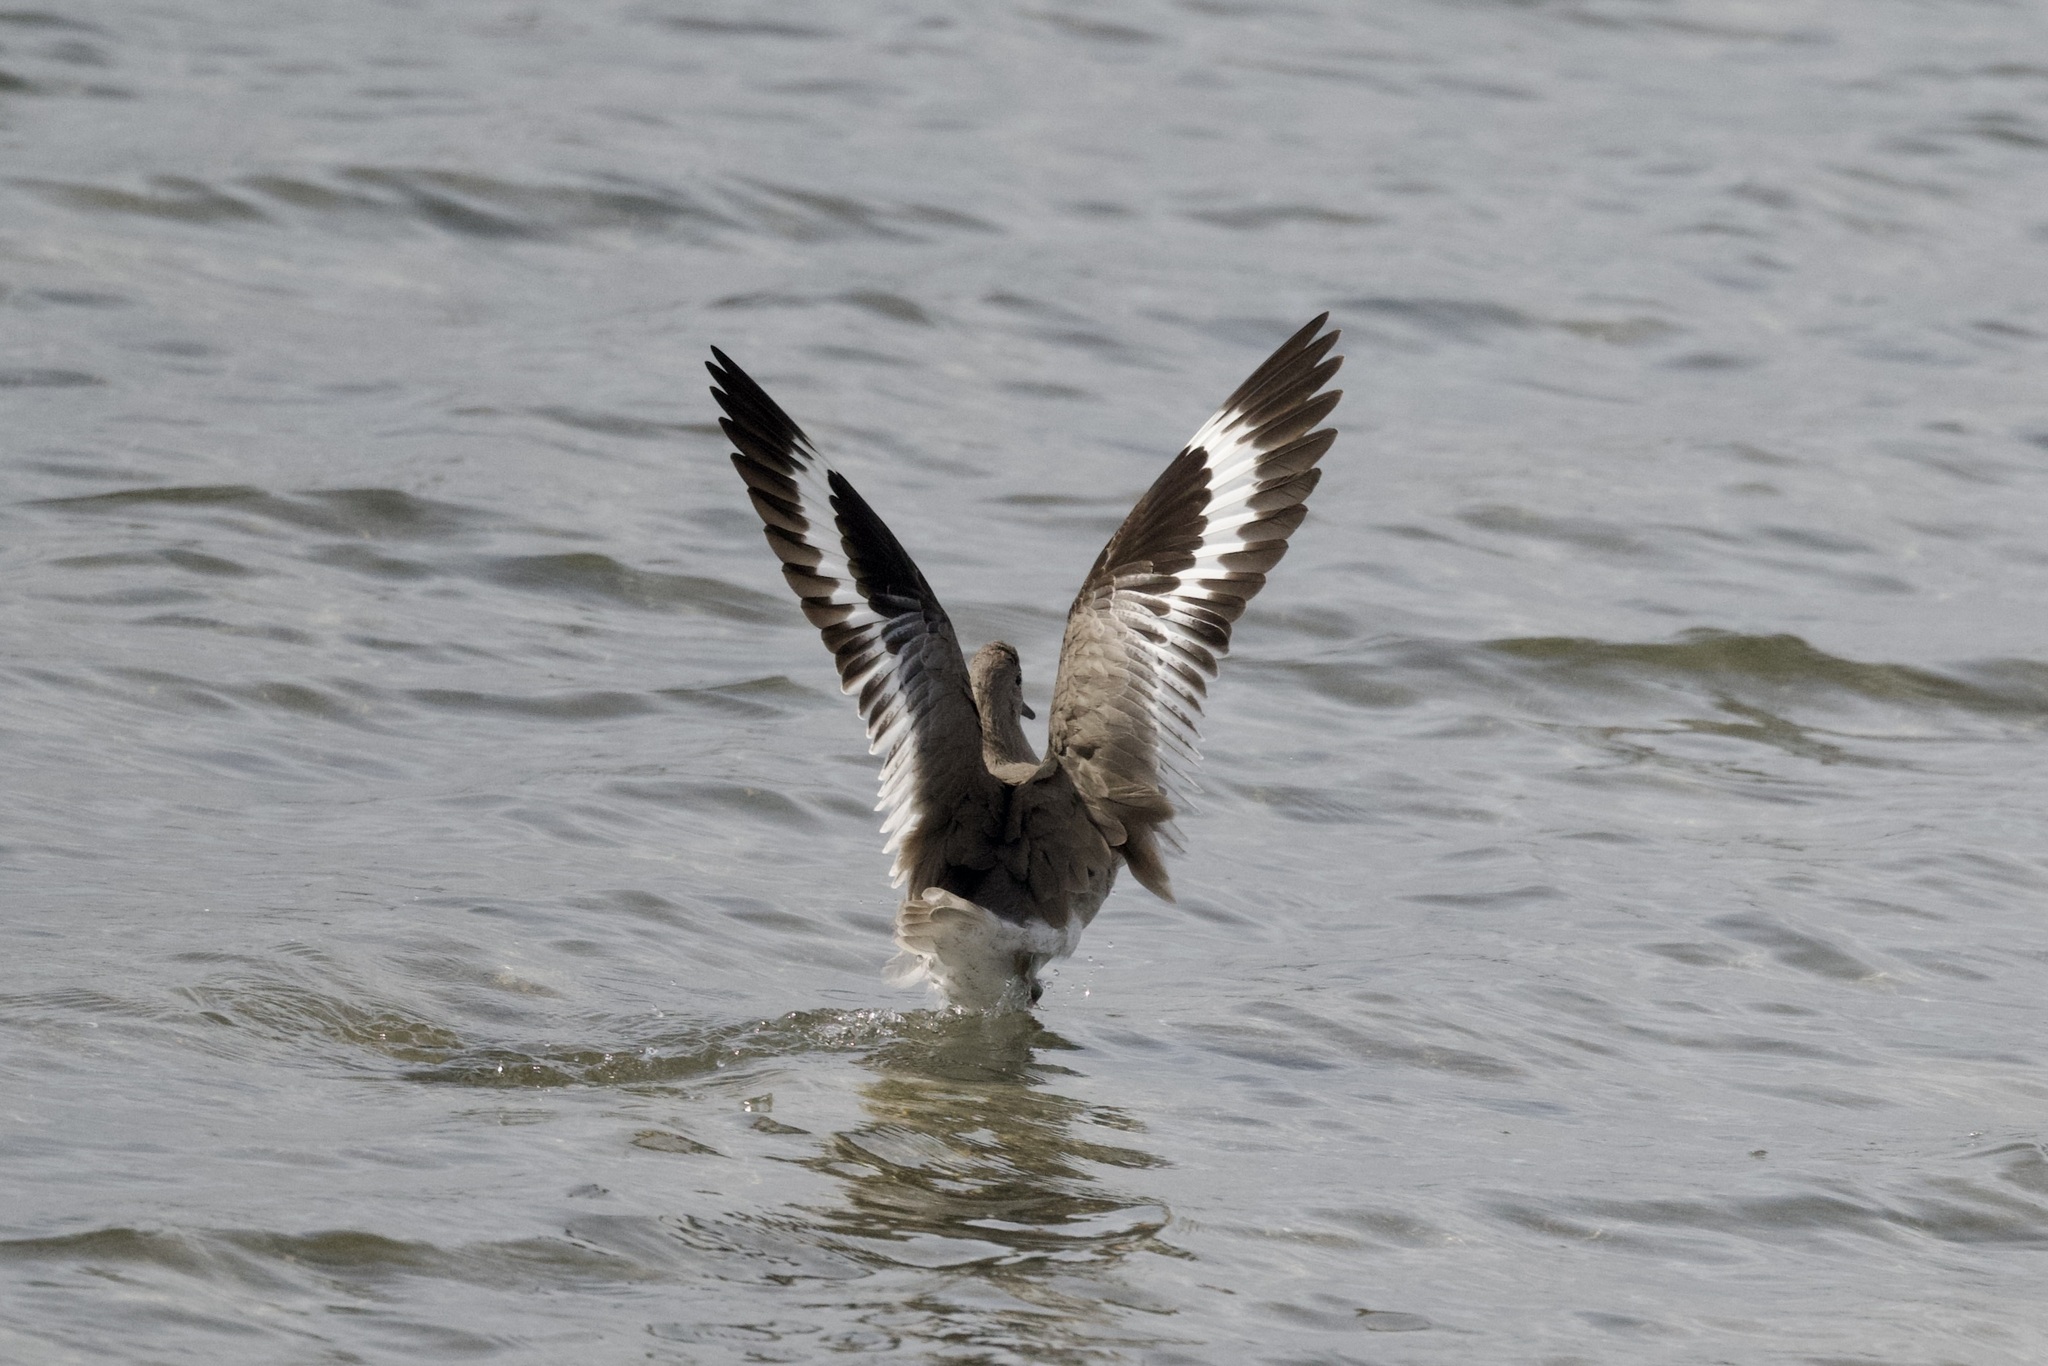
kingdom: Animalia
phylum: Chordata
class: Aves
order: Charadriiformes
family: Scolopacidae
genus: Tringa
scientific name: Tringa semipalmata
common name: Willet
